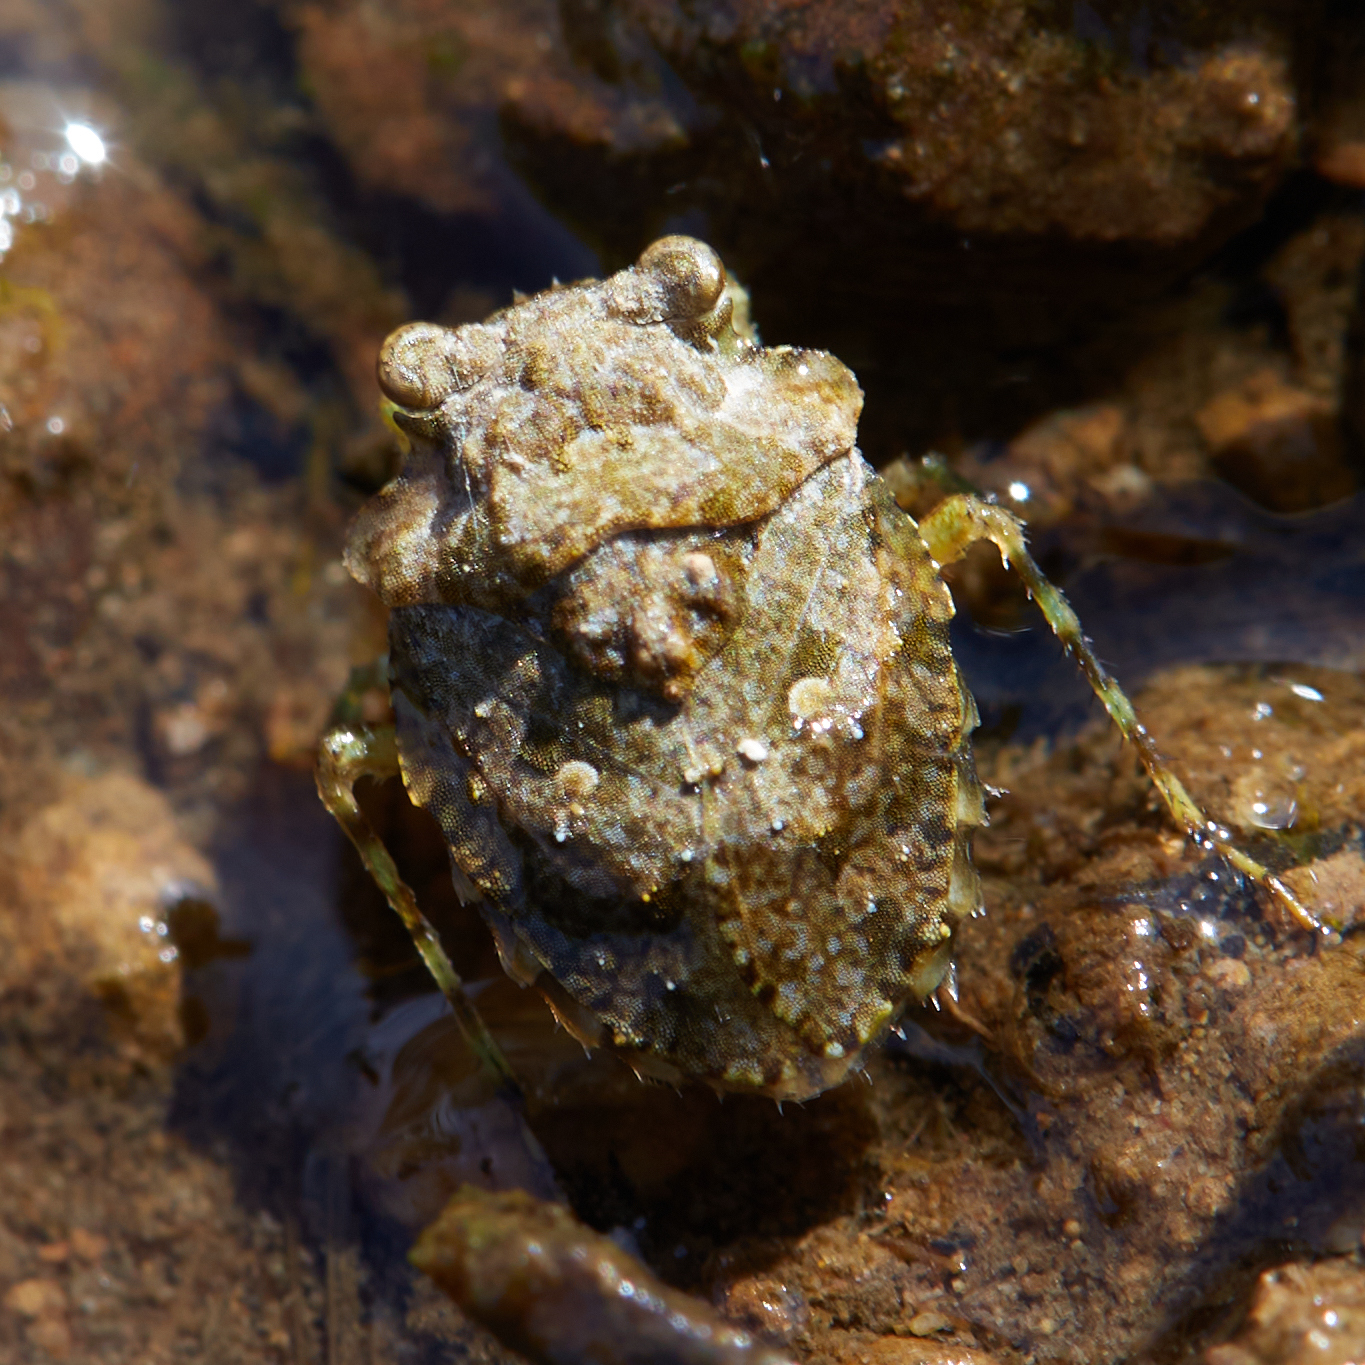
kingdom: Animalia
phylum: Arthropoda
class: Insecta
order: Hemiptera
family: Gelastocoridae
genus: Gelastocoris
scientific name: Gelastocoris oculatus
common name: Toad bug
